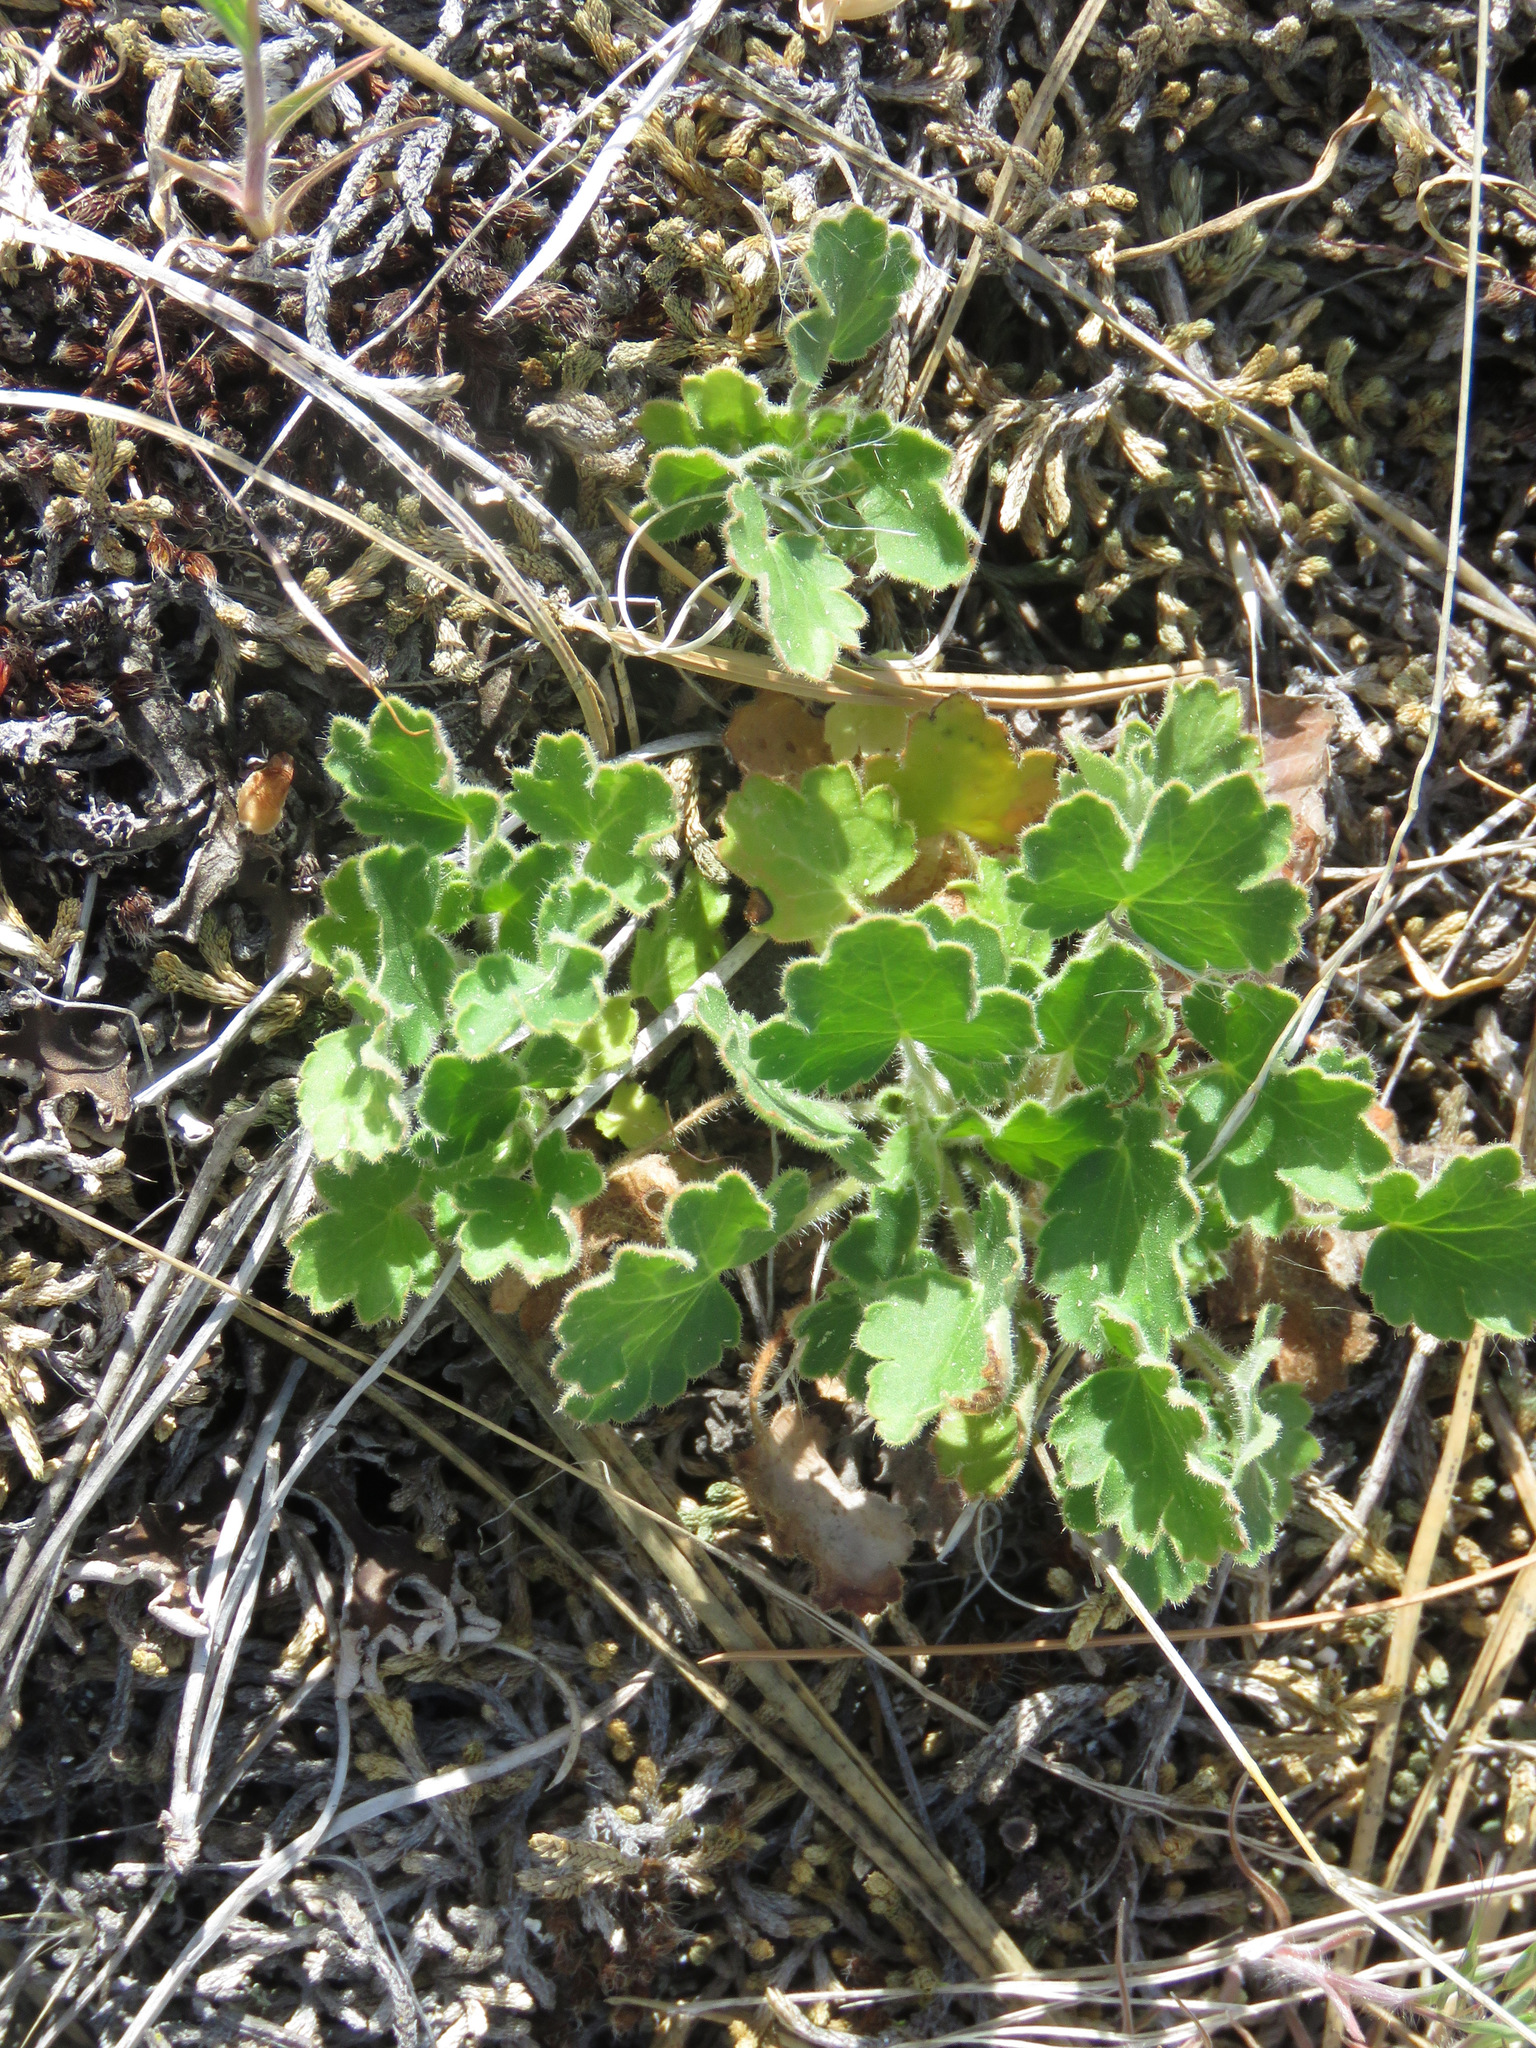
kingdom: Plantae
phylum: Tracheophyta
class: Magnoliopsida
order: Saxifragales
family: Saxifragaceae
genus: Heuchera
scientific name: Heuchera cylindrica
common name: Mat alumroot
